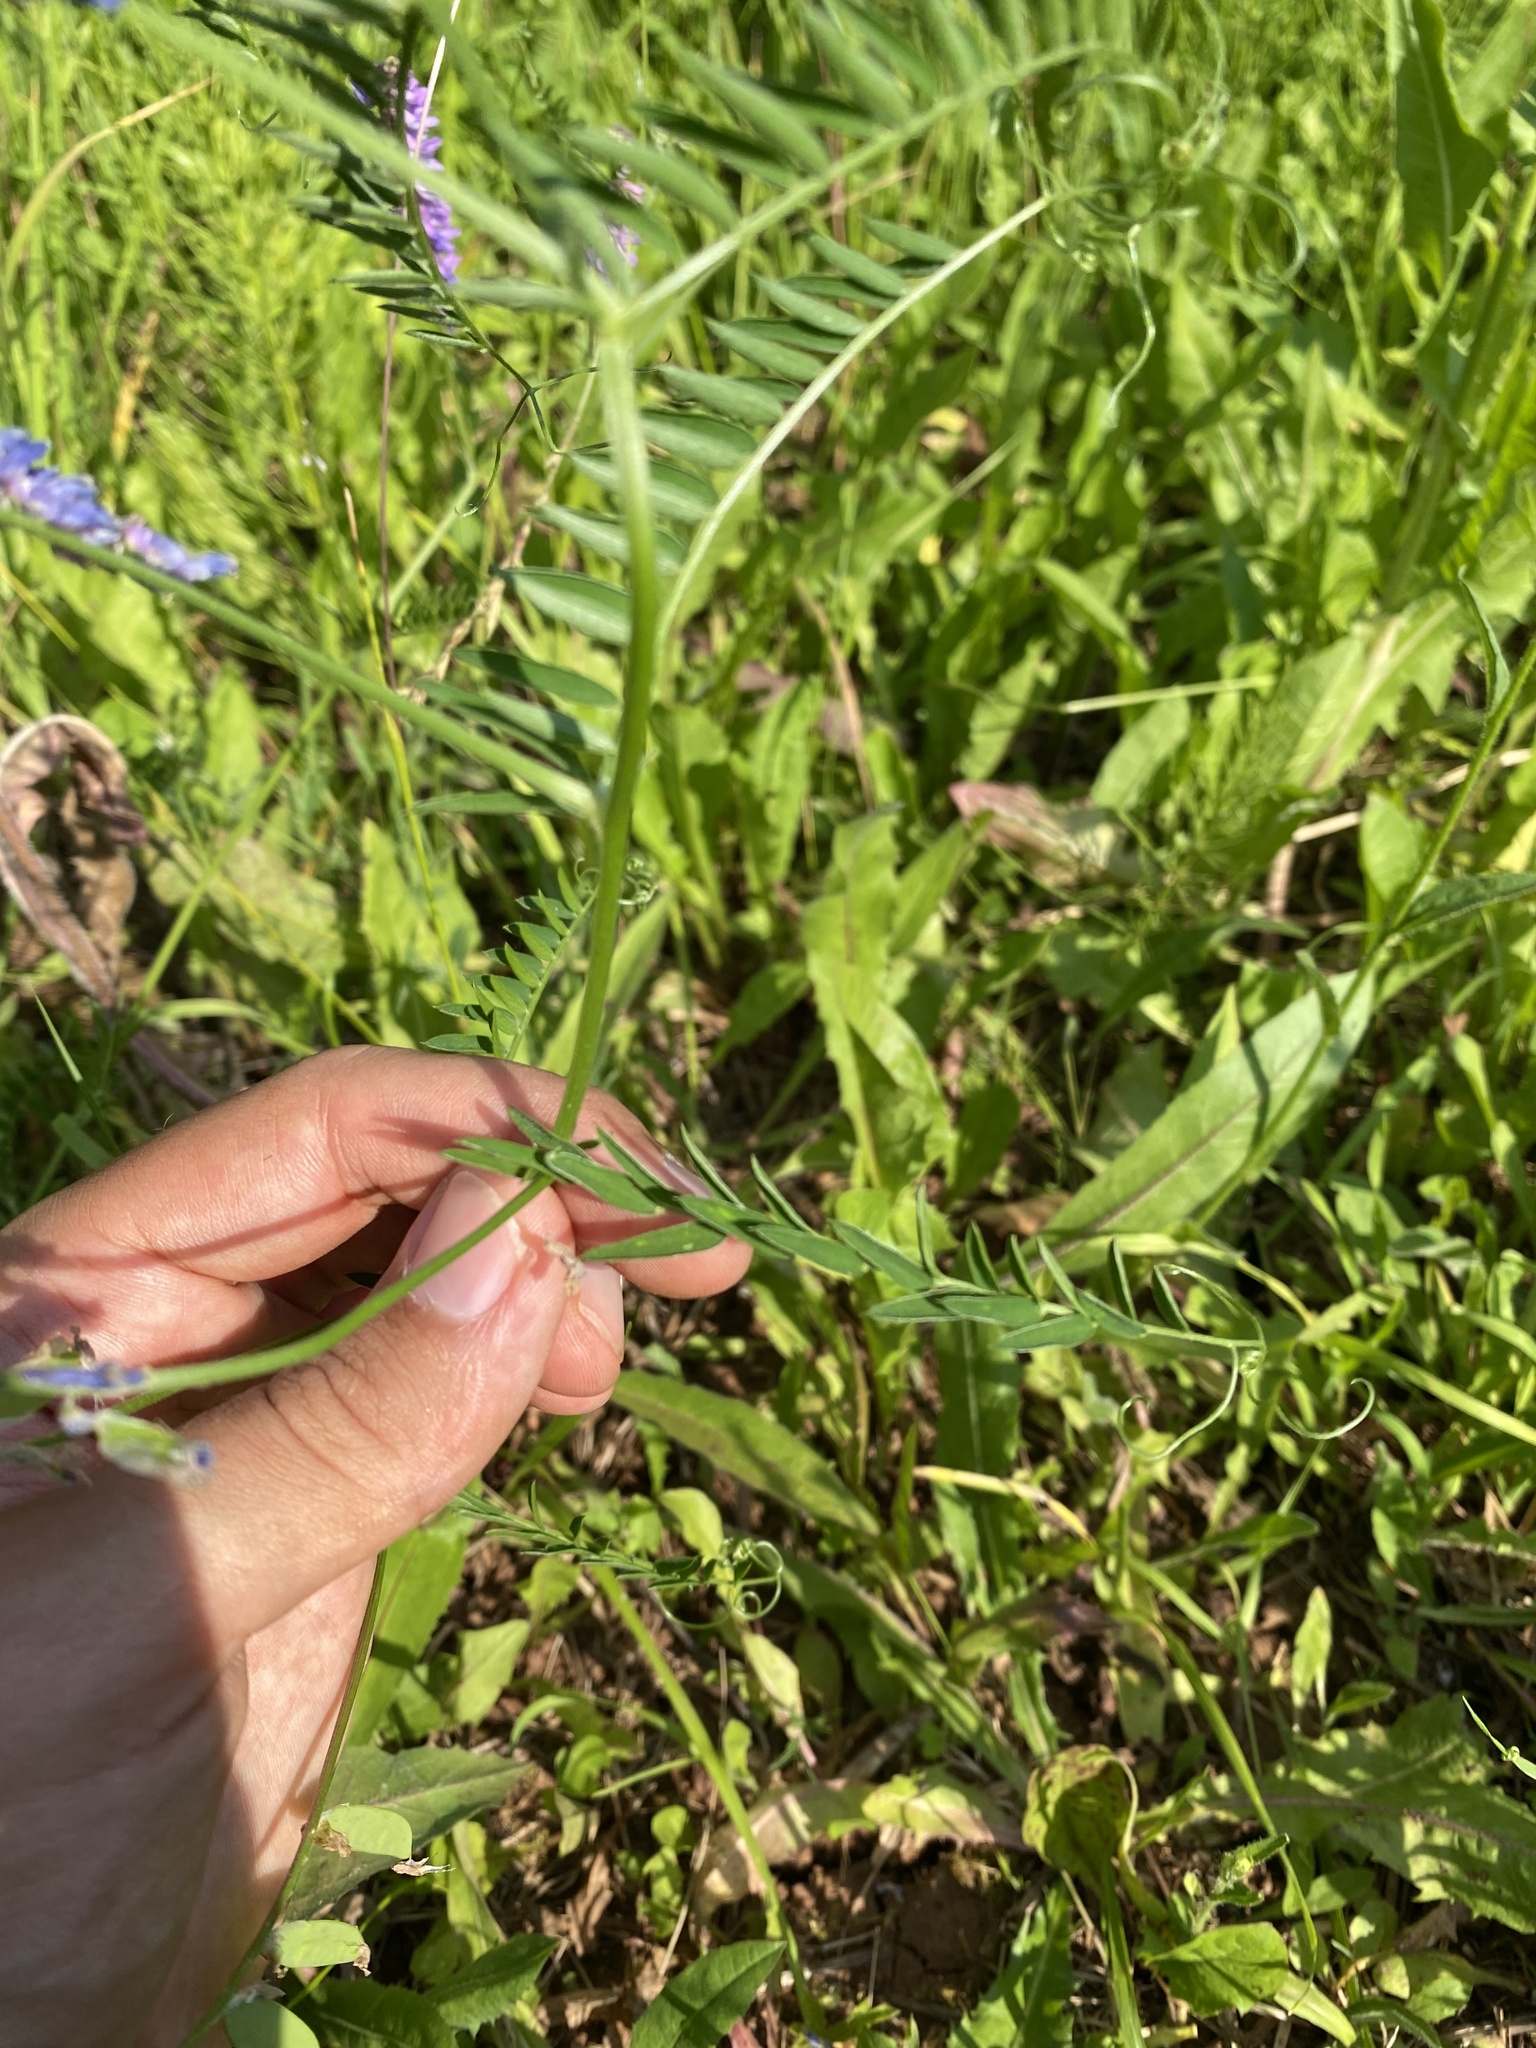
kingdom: Plantae
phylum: Tracheophyta
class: Magnoliopsida
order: Fabales
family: Fabaceae
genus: Vicia
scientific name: Vicia cracca
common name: Bird vetch
